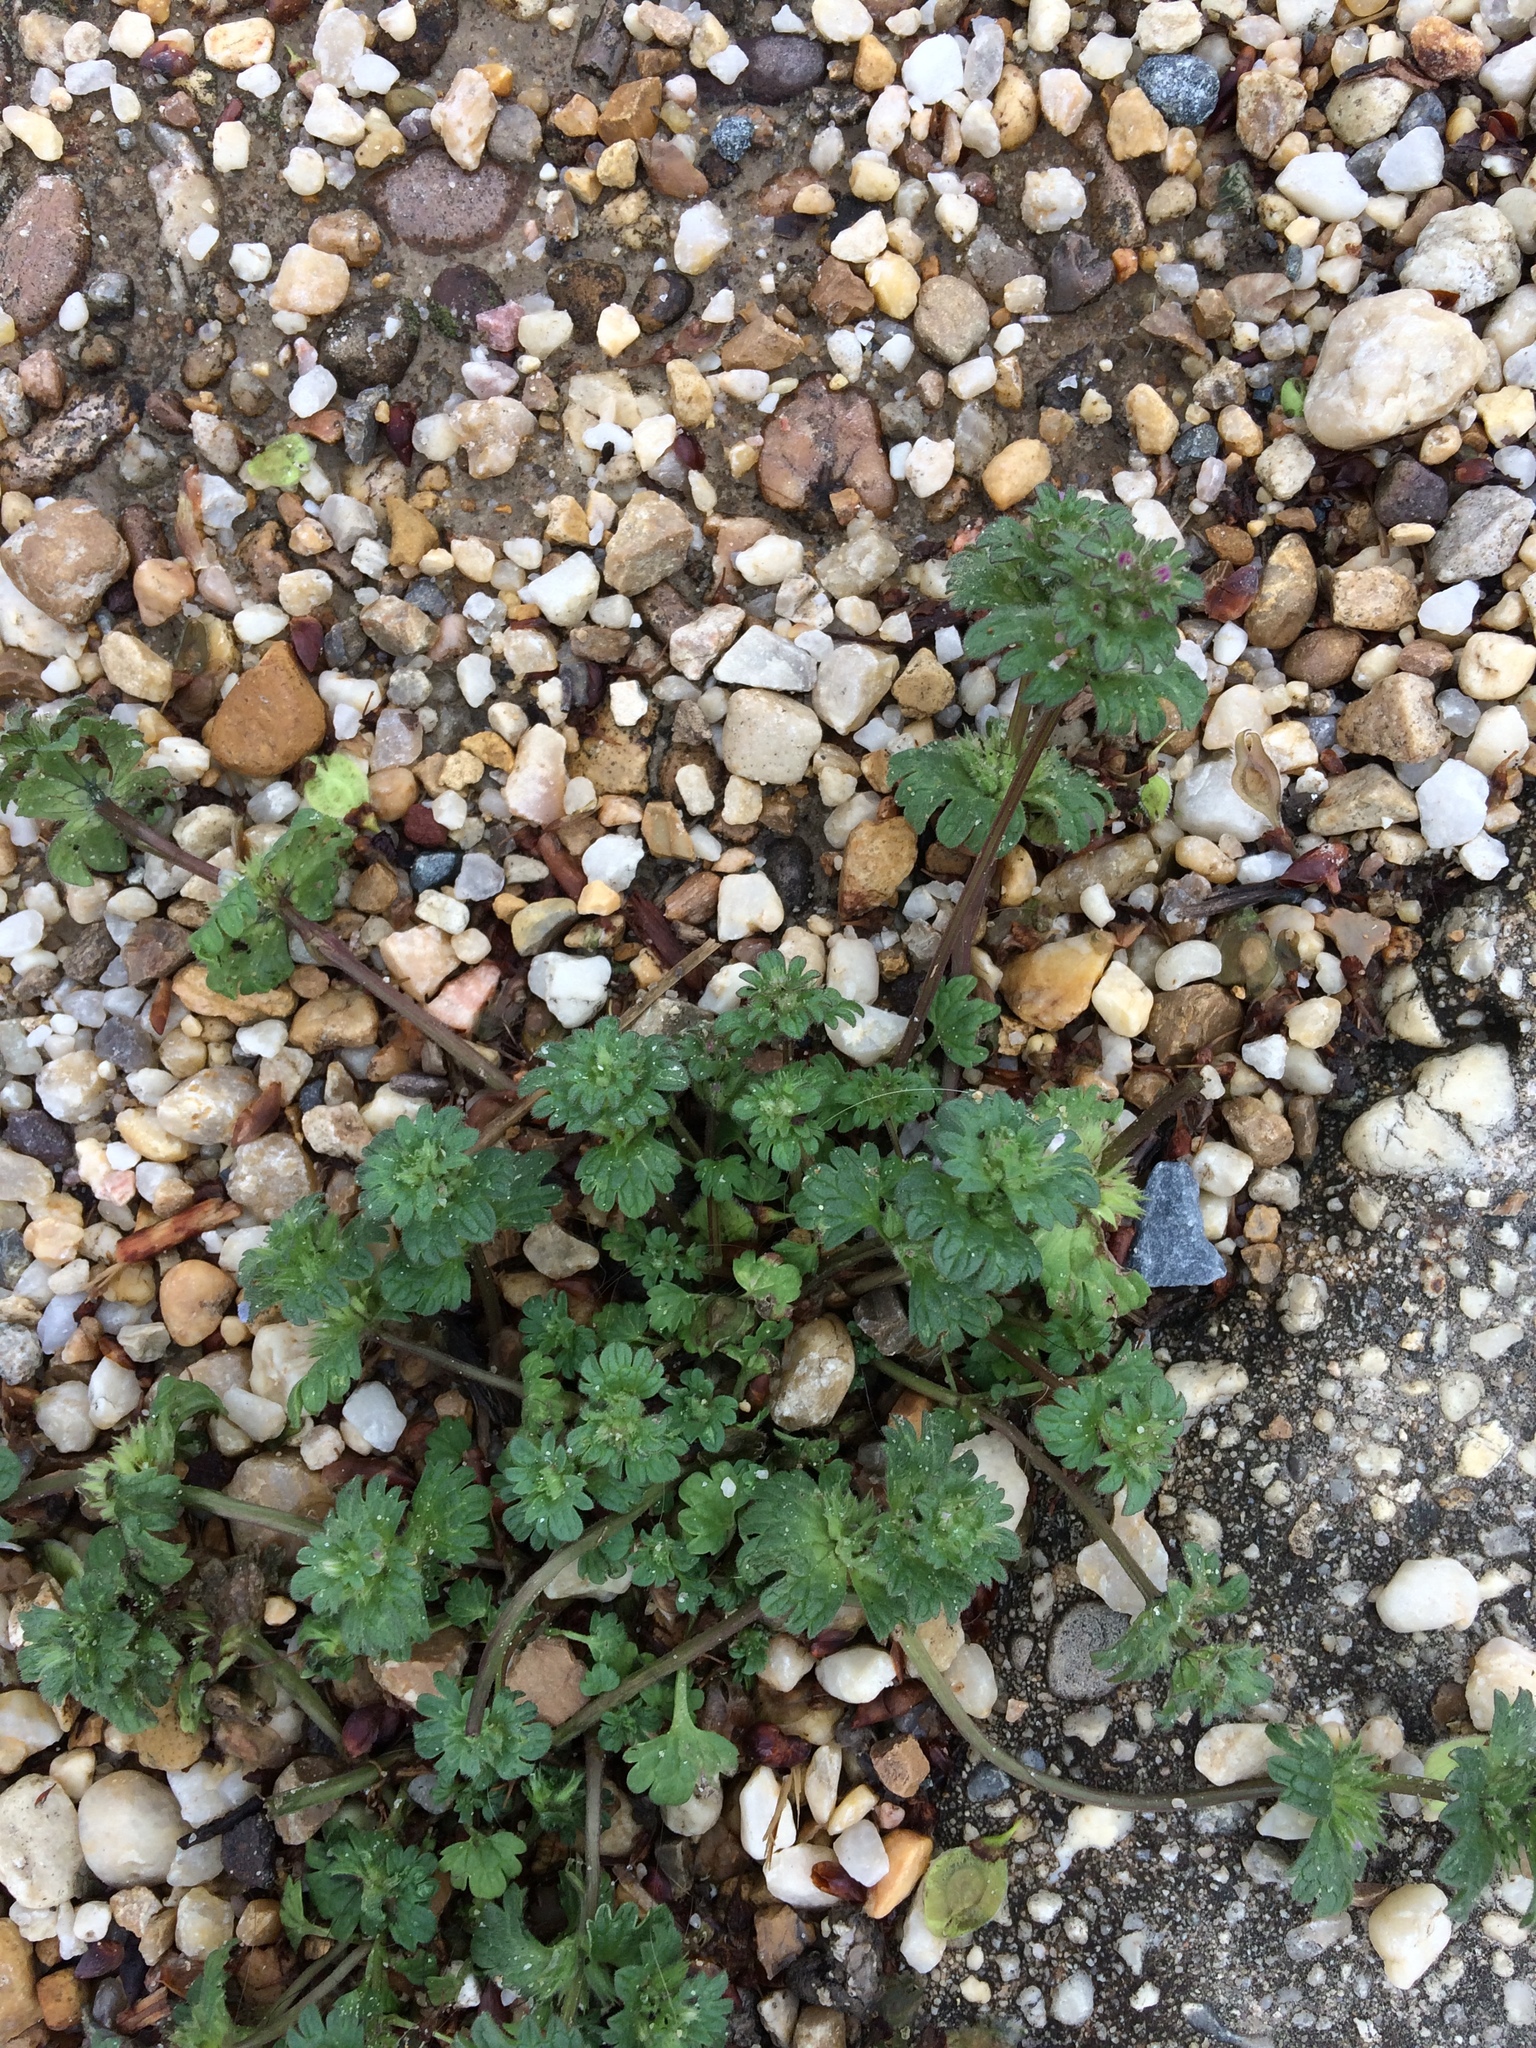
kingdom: Plantae
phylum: Tracheophyta
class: Magnoliopsida
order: Lamiales
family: Lamiaceae
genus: Lamium
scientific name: Lamium amplexicaule
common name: Henbit dead-nettle
